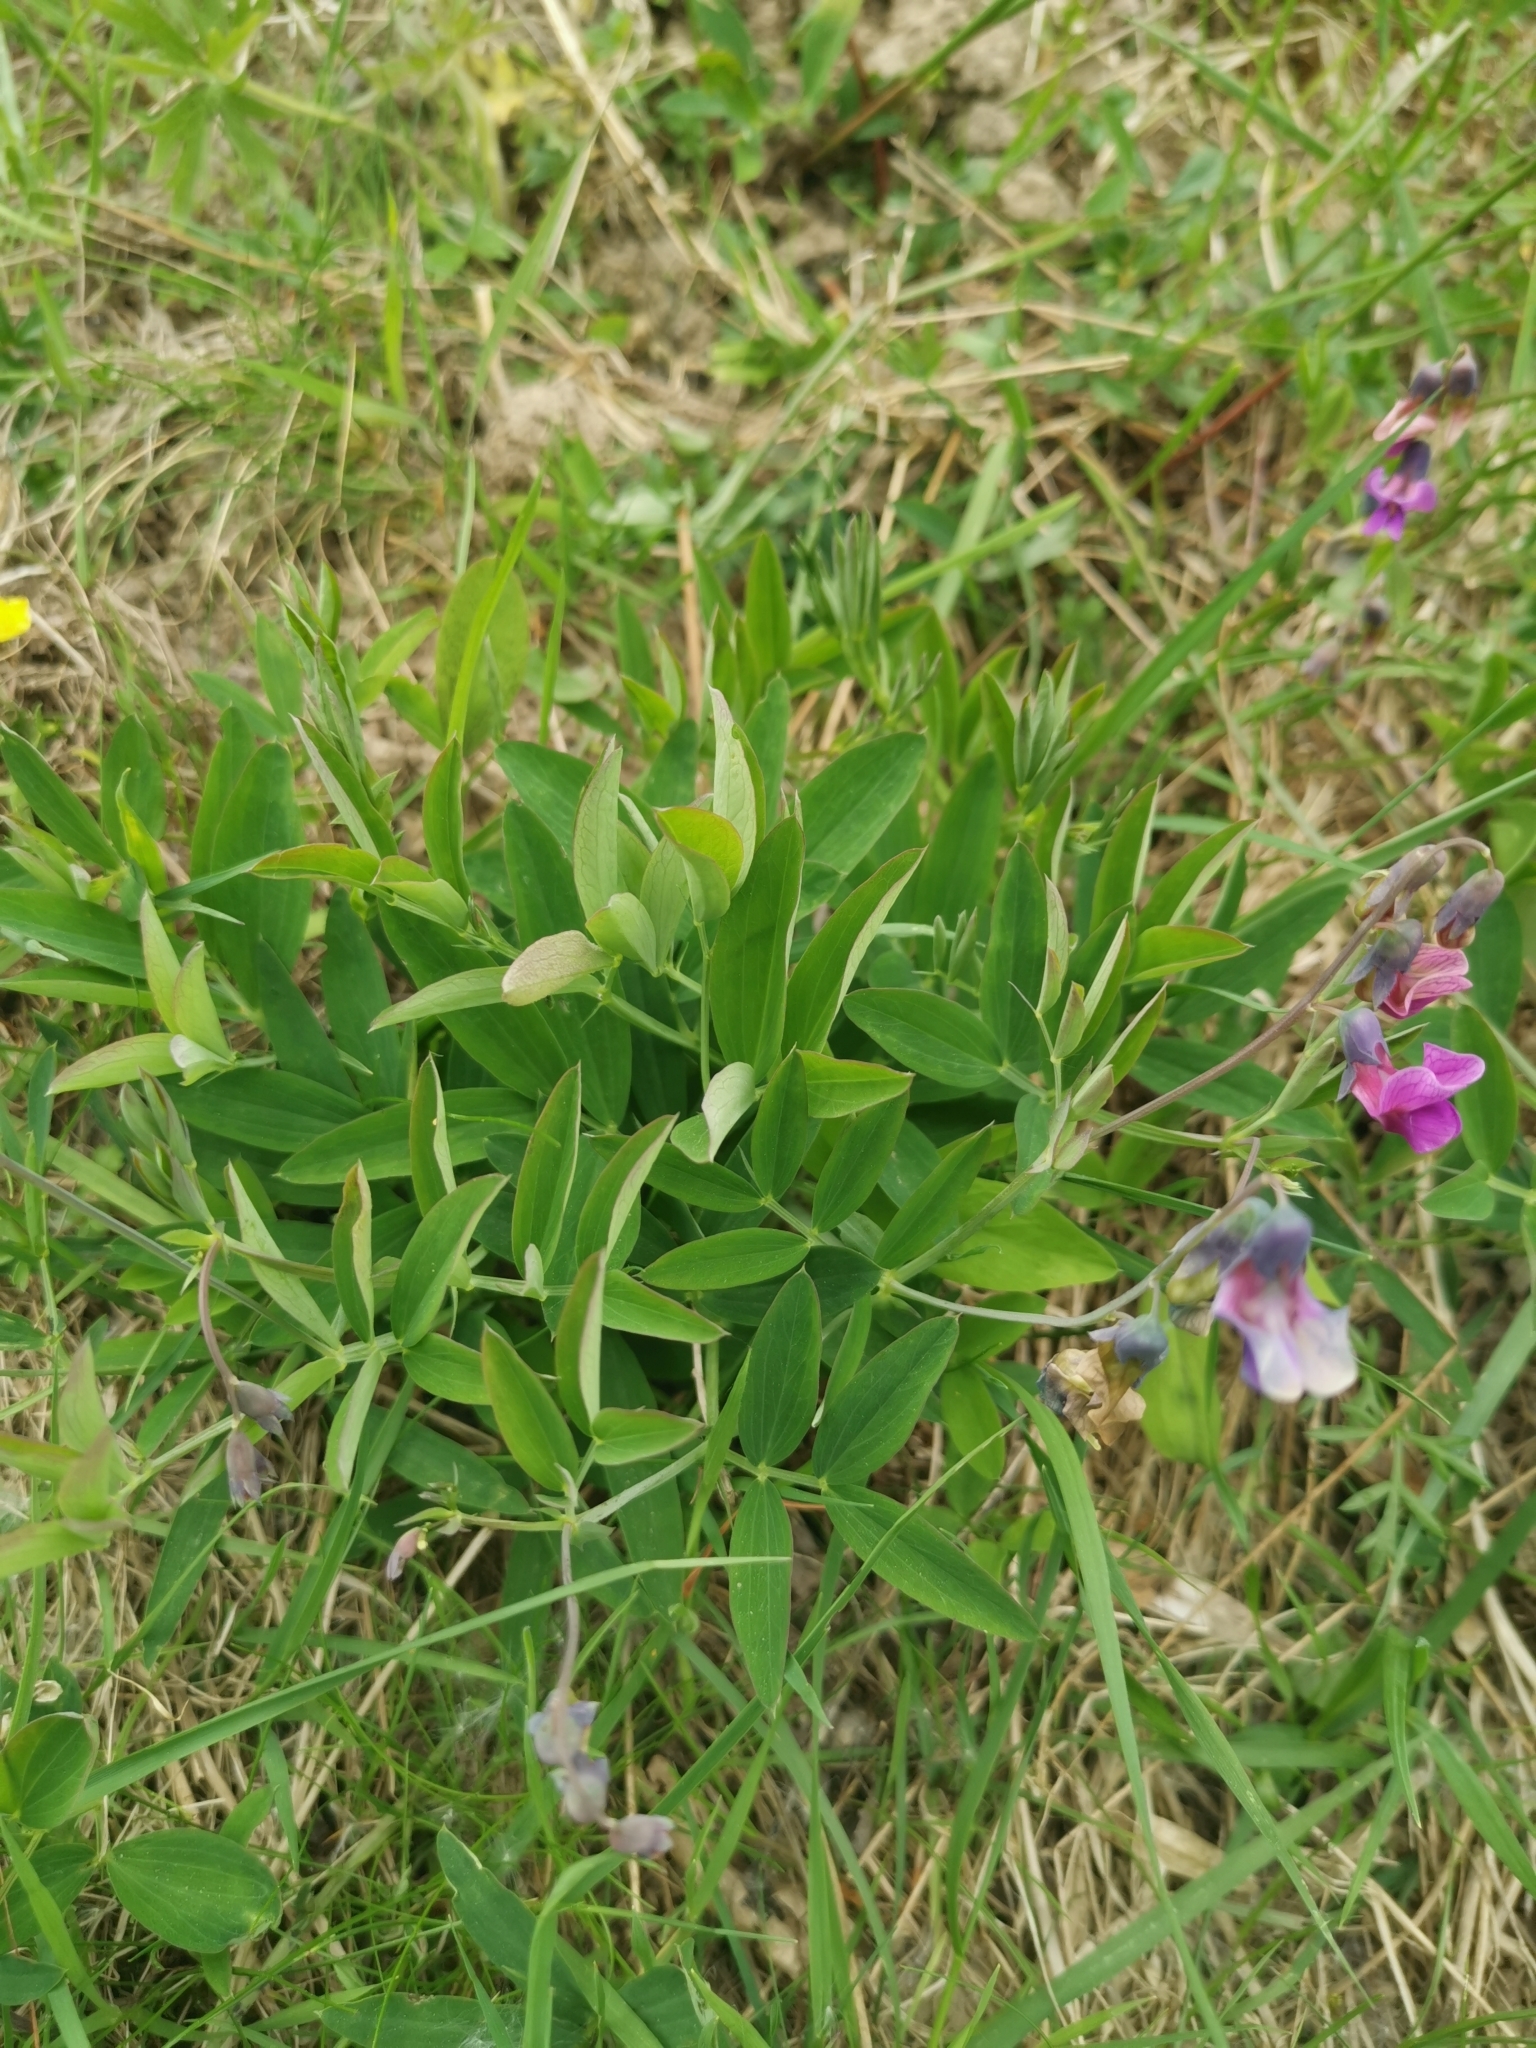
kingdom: Plantae
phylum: Tracheophyta
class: Magnoliopsida
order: Fabales
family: Fabaceae
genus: Lathyrus
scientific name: Lathyrus linifolius
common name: Bitter-vetch
